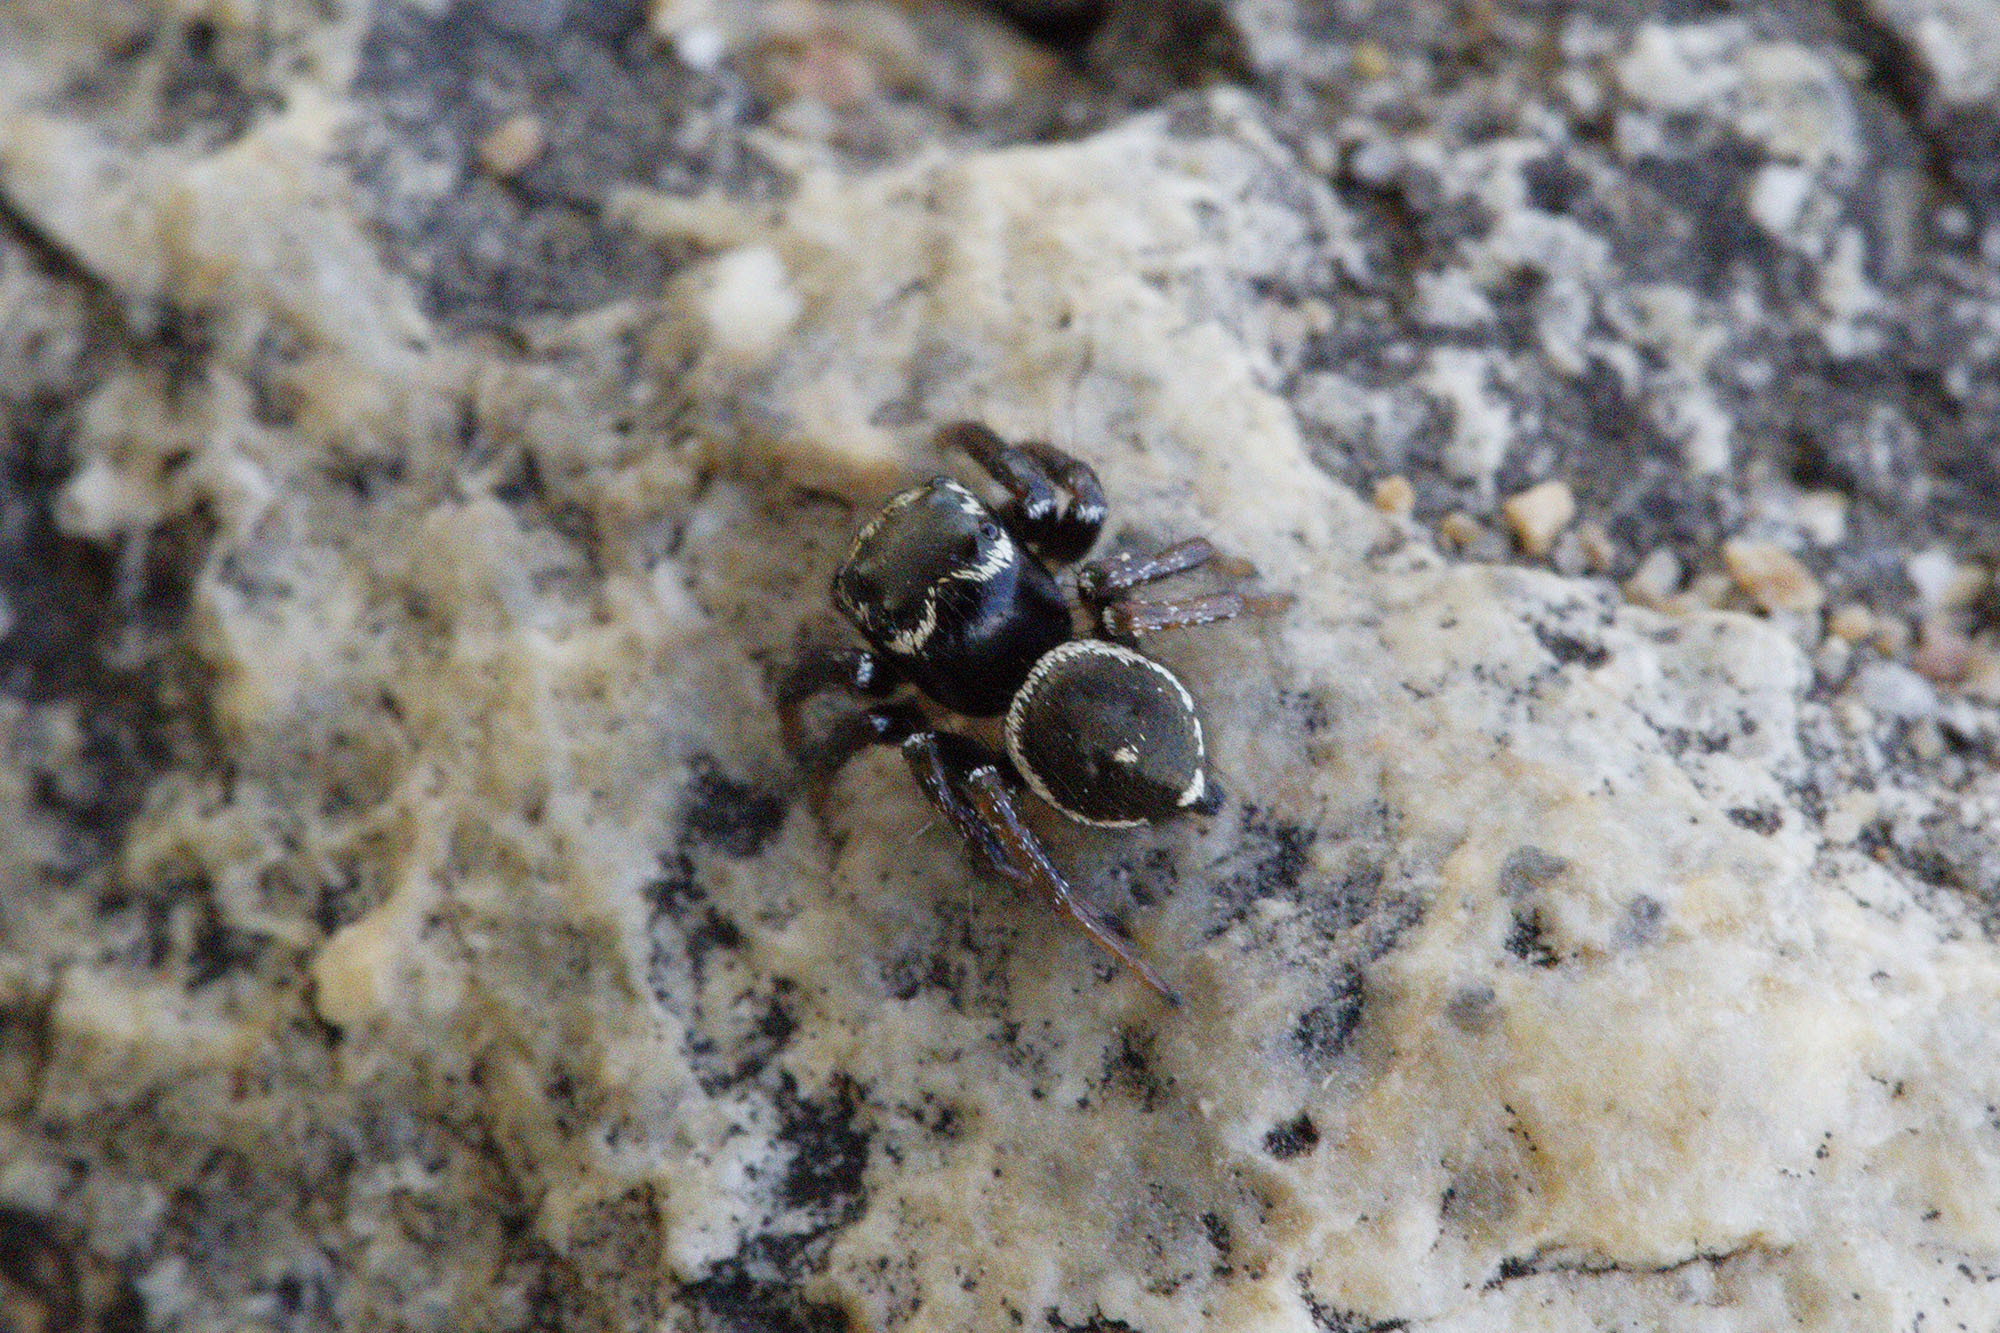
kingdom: Animalia
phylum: Arthropoda
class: Arachnida
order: Araneae
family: Salticidae
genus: Zenodorus
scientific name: Zenodorus orbiculatus
